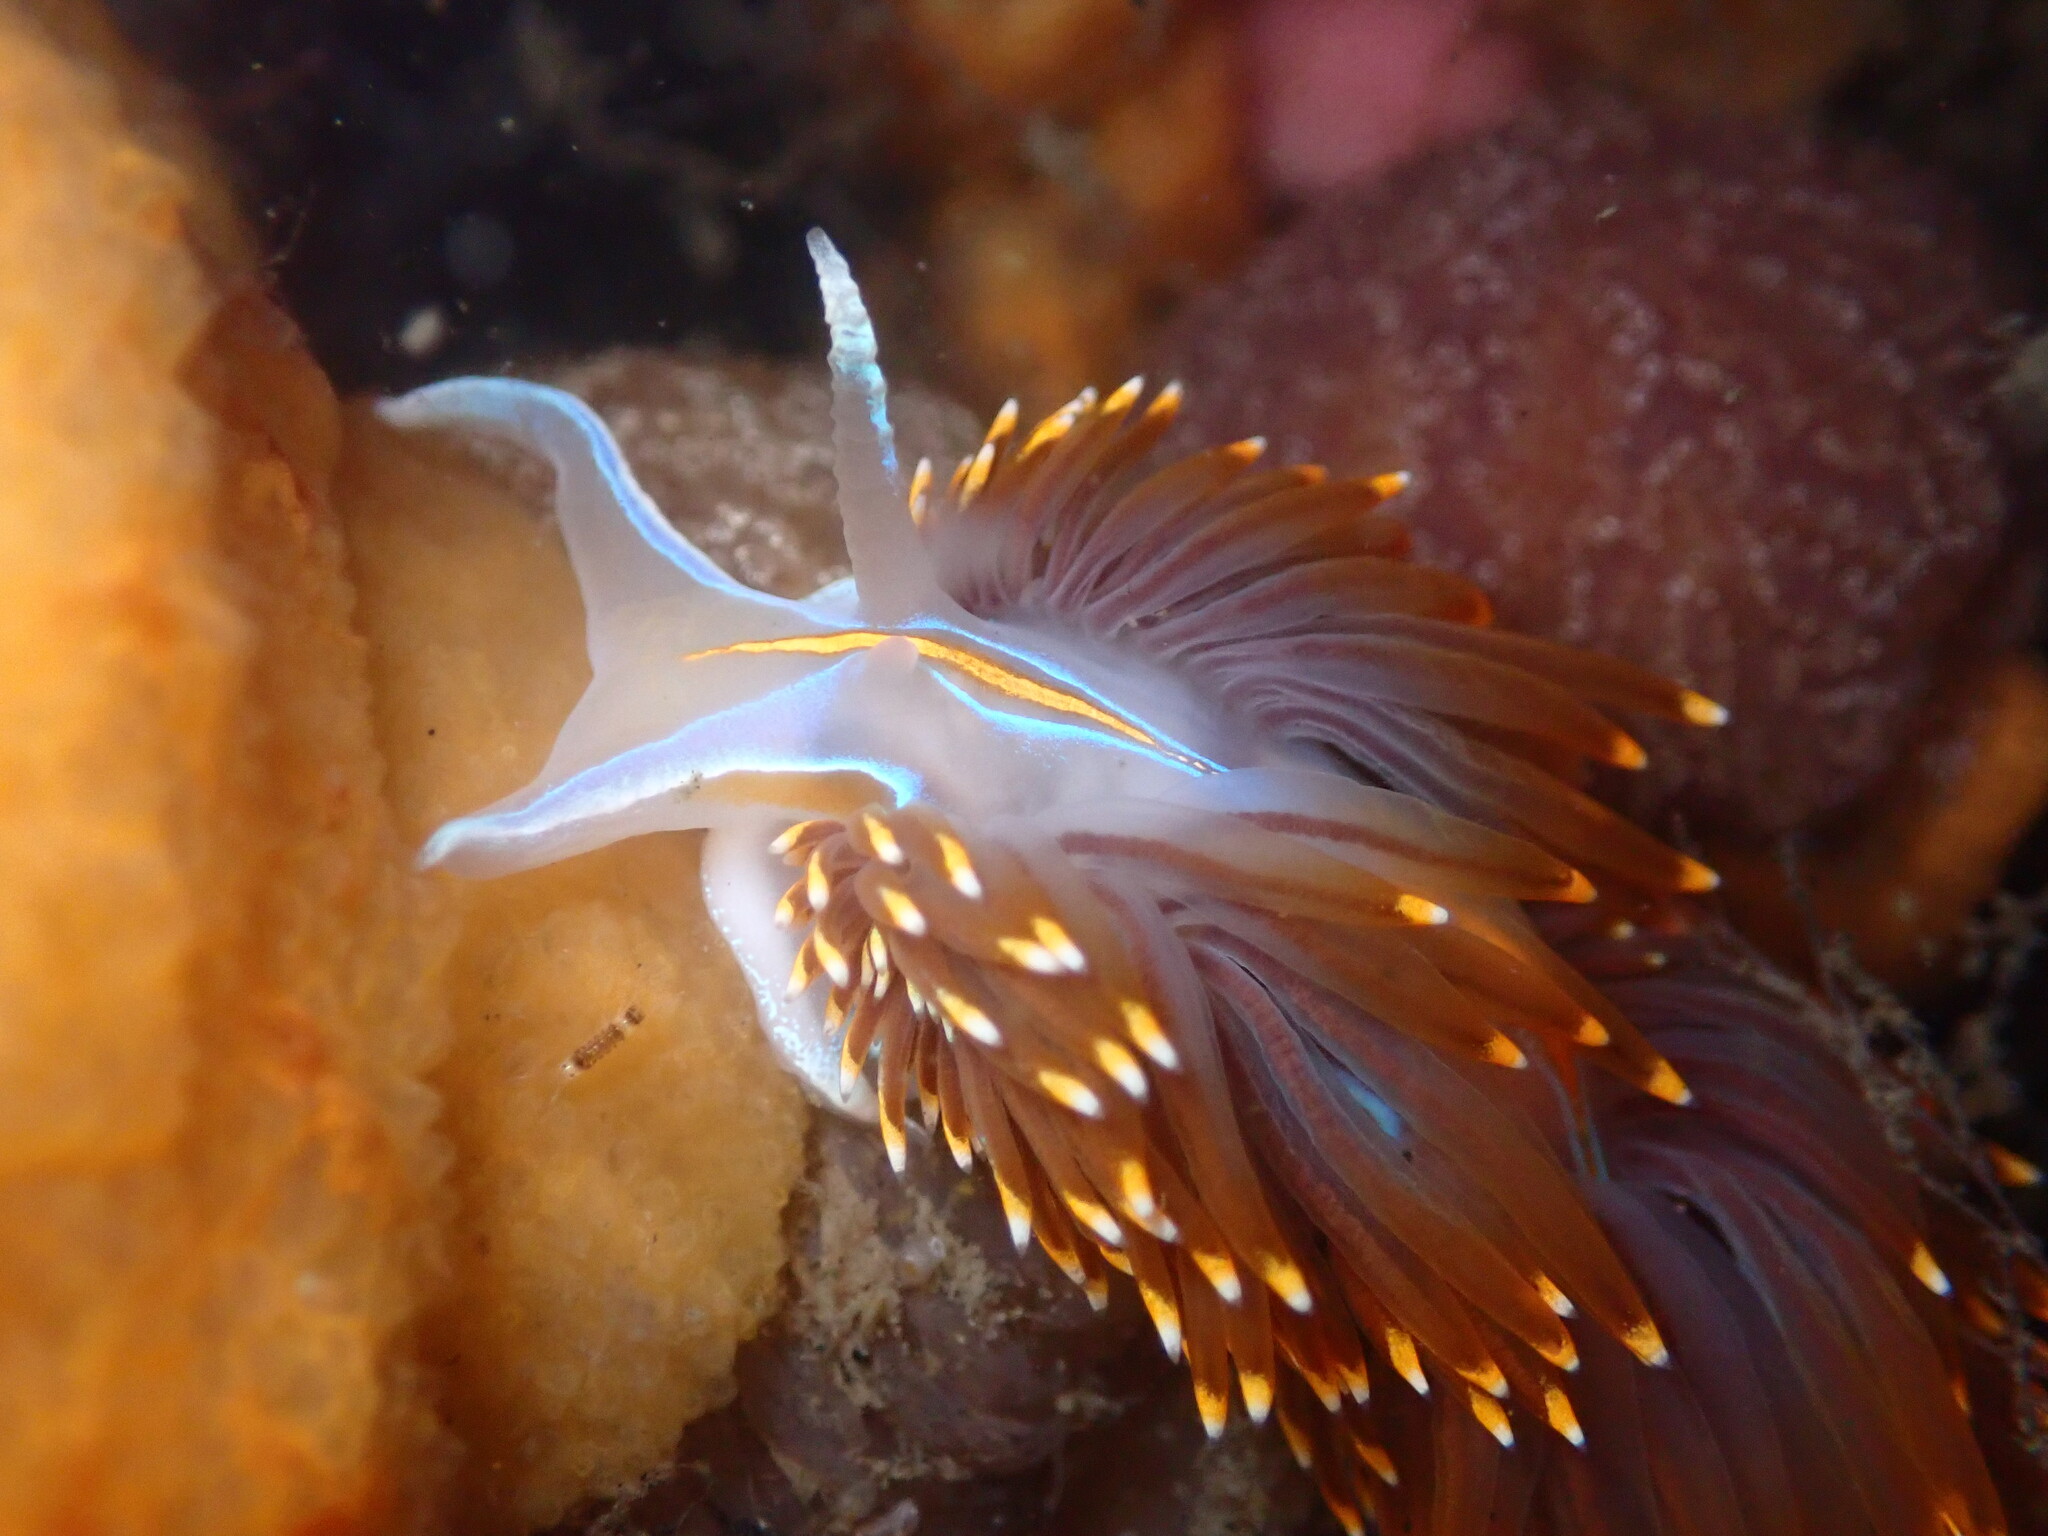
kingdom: Animalia
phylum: Mollusca
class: Gastropoda
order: Nudibranchia
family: Myrrhinidae
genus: Hermissenda
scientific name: Hermissenda opalescens
